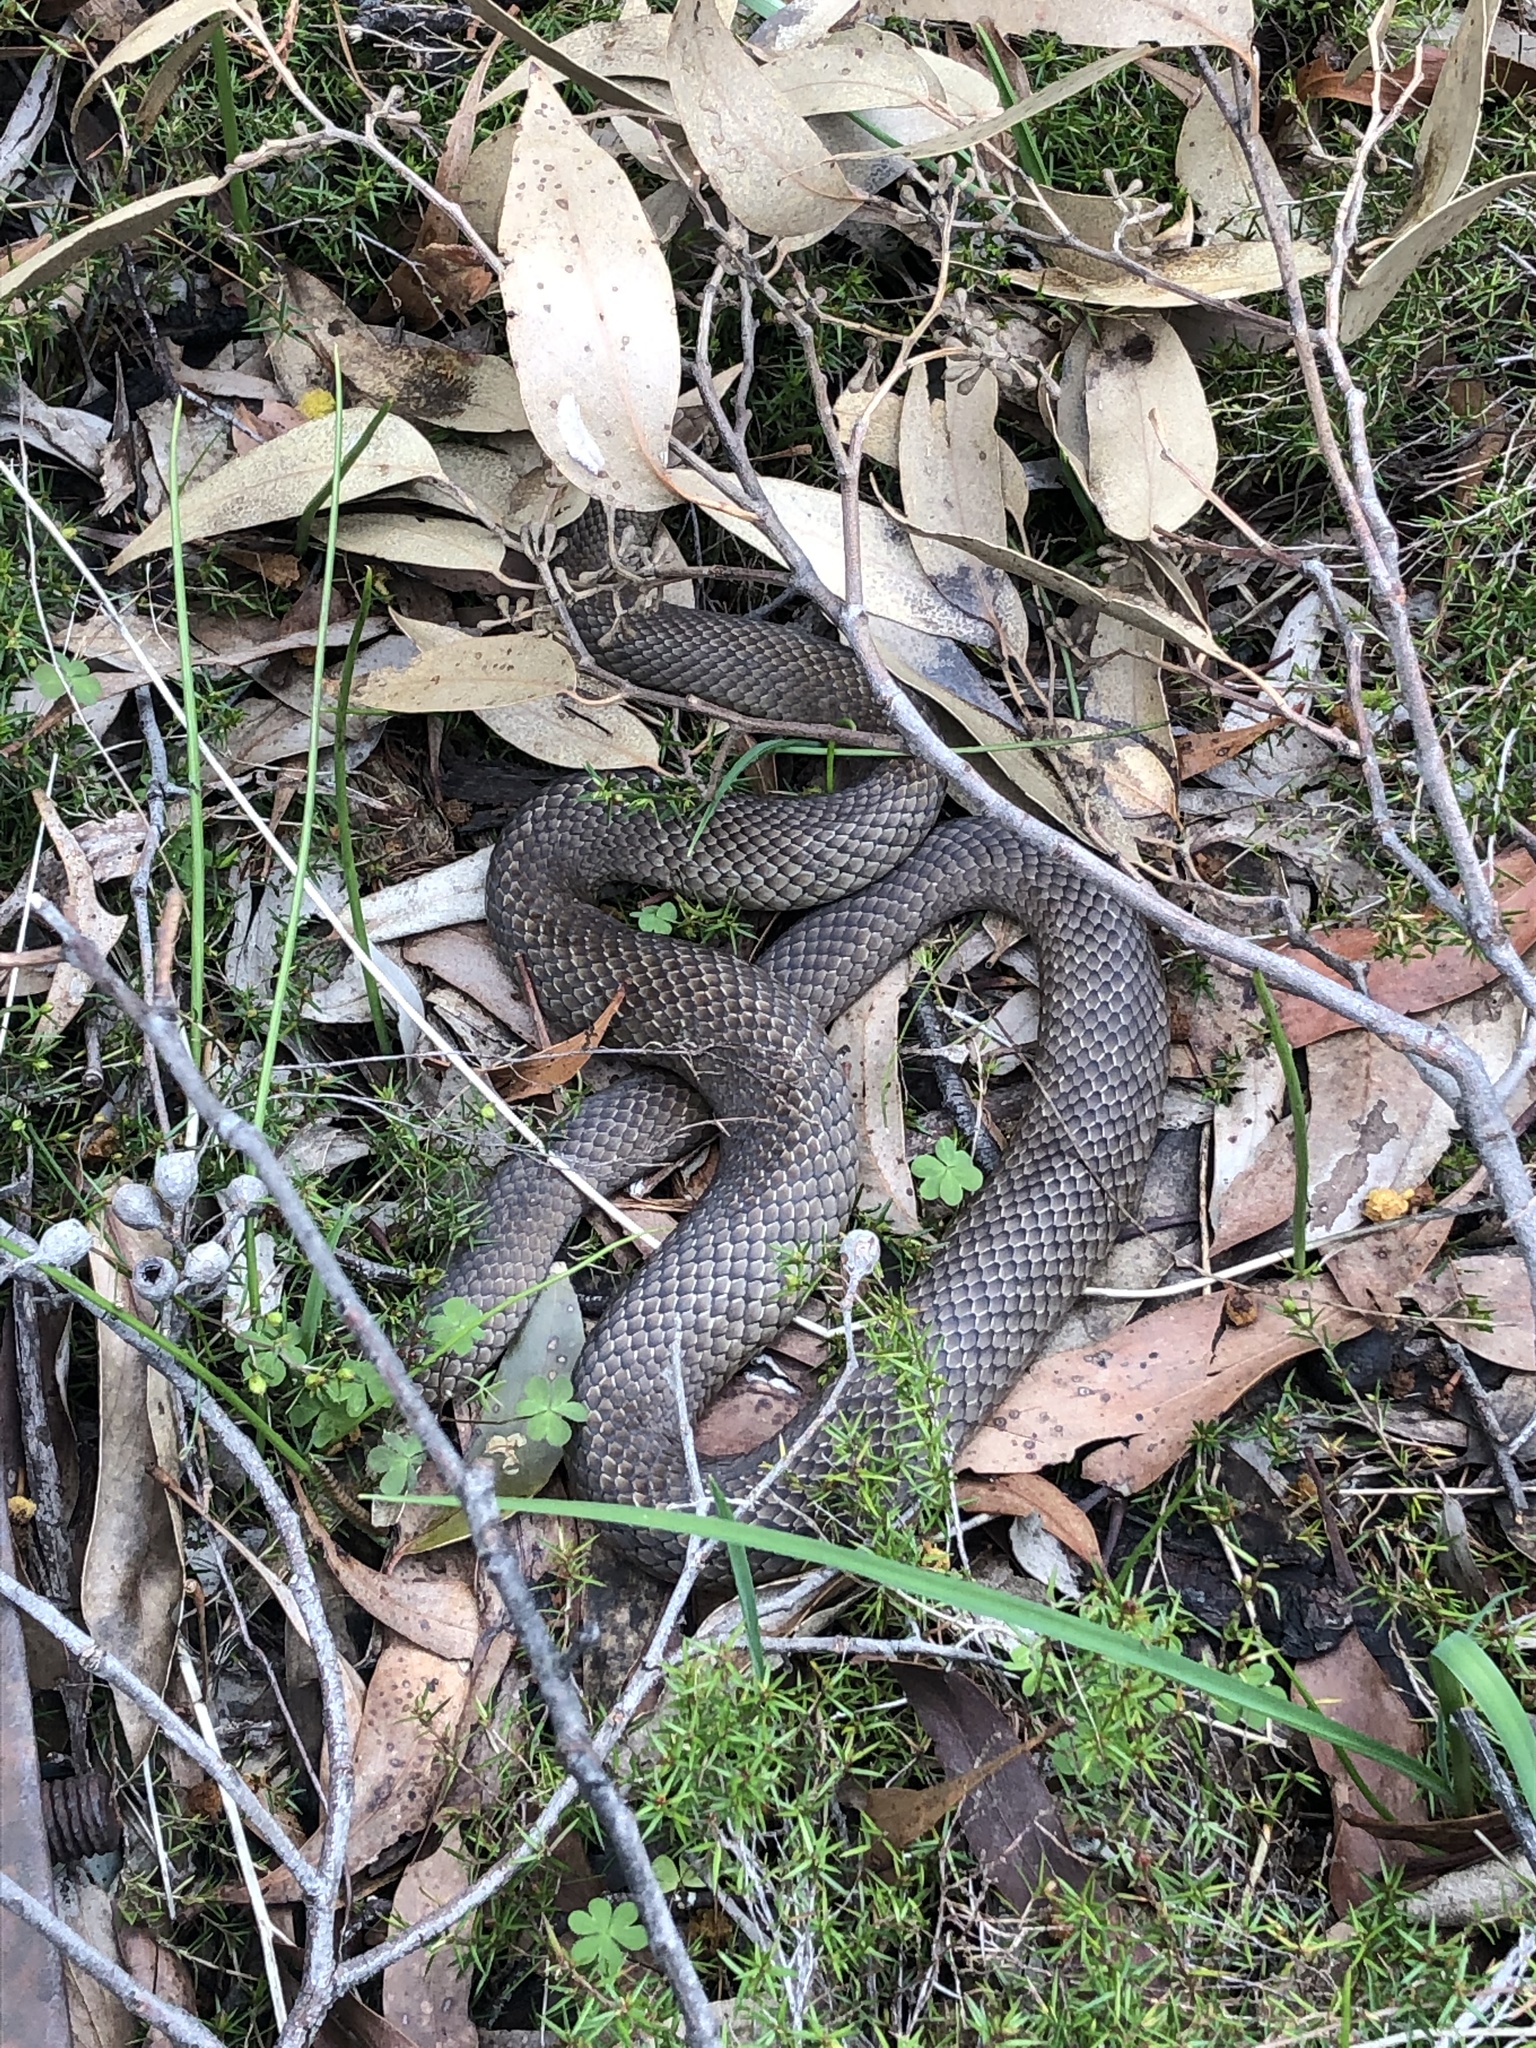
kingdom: Animalia
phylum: Chordata
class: Squamata
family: Elapidae
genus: Pseudonaja
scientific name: Pseudonaja textilis
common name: Eastern brown snake
